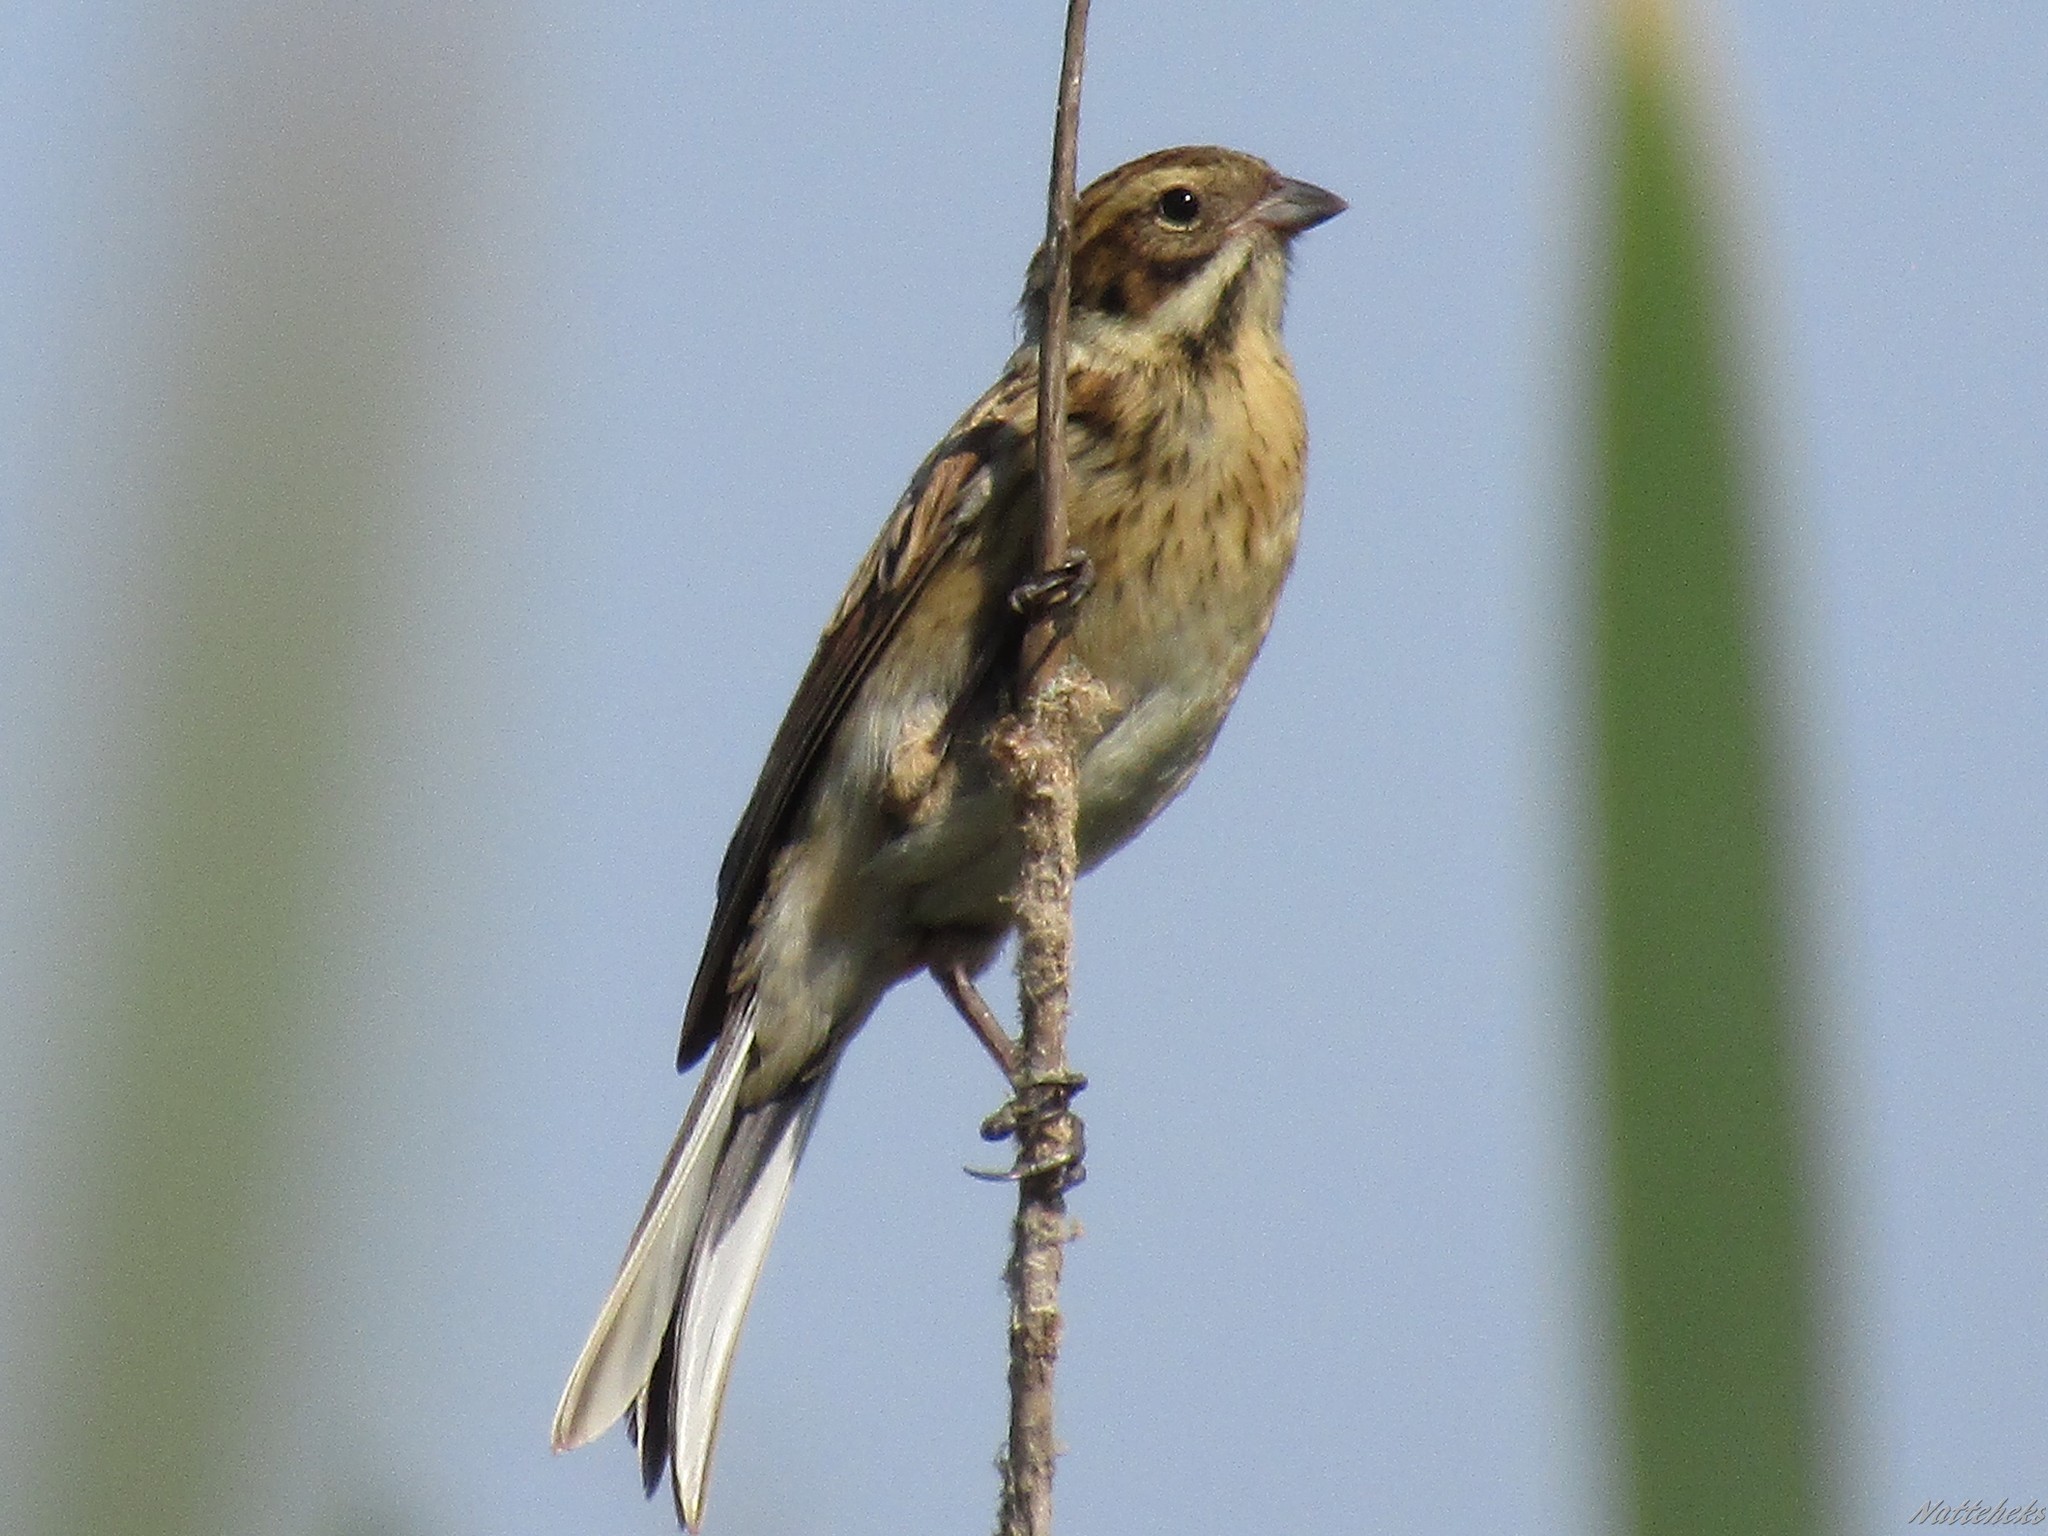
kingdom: Animalia
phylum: Chordata
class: Aves
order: Passeriformes
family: Emberizidae
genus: Emberiza
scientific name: Emberiza schoeniclus
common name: Reed bunting
